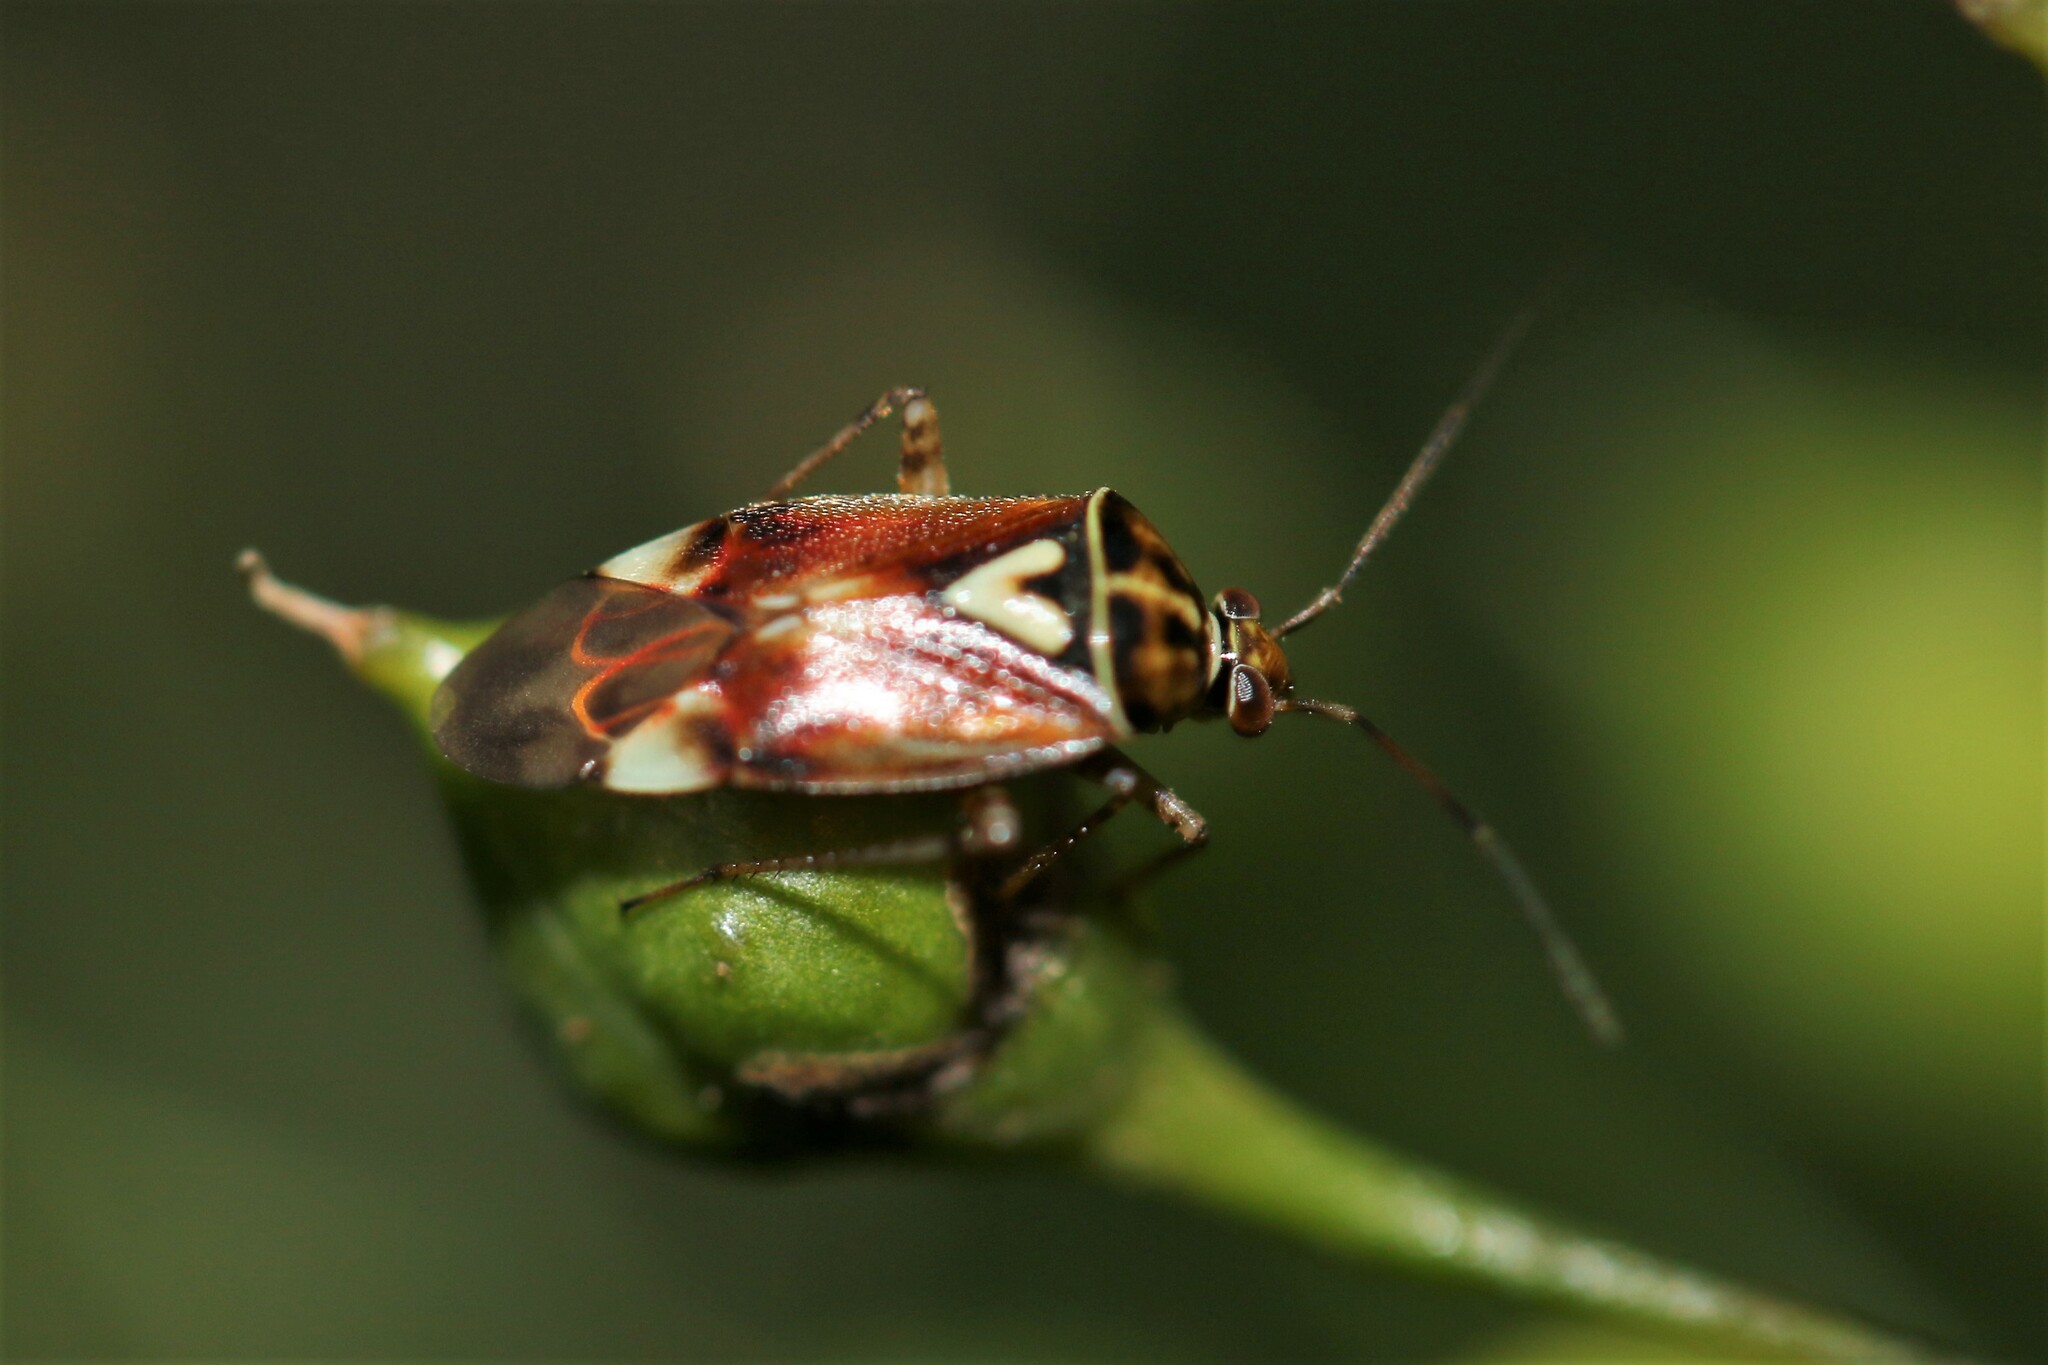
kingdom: Animalia
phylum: Arthropoda
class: Insecta
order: Hemiptera
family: Miridae
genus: Lygus
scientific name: Lygus pratensis
